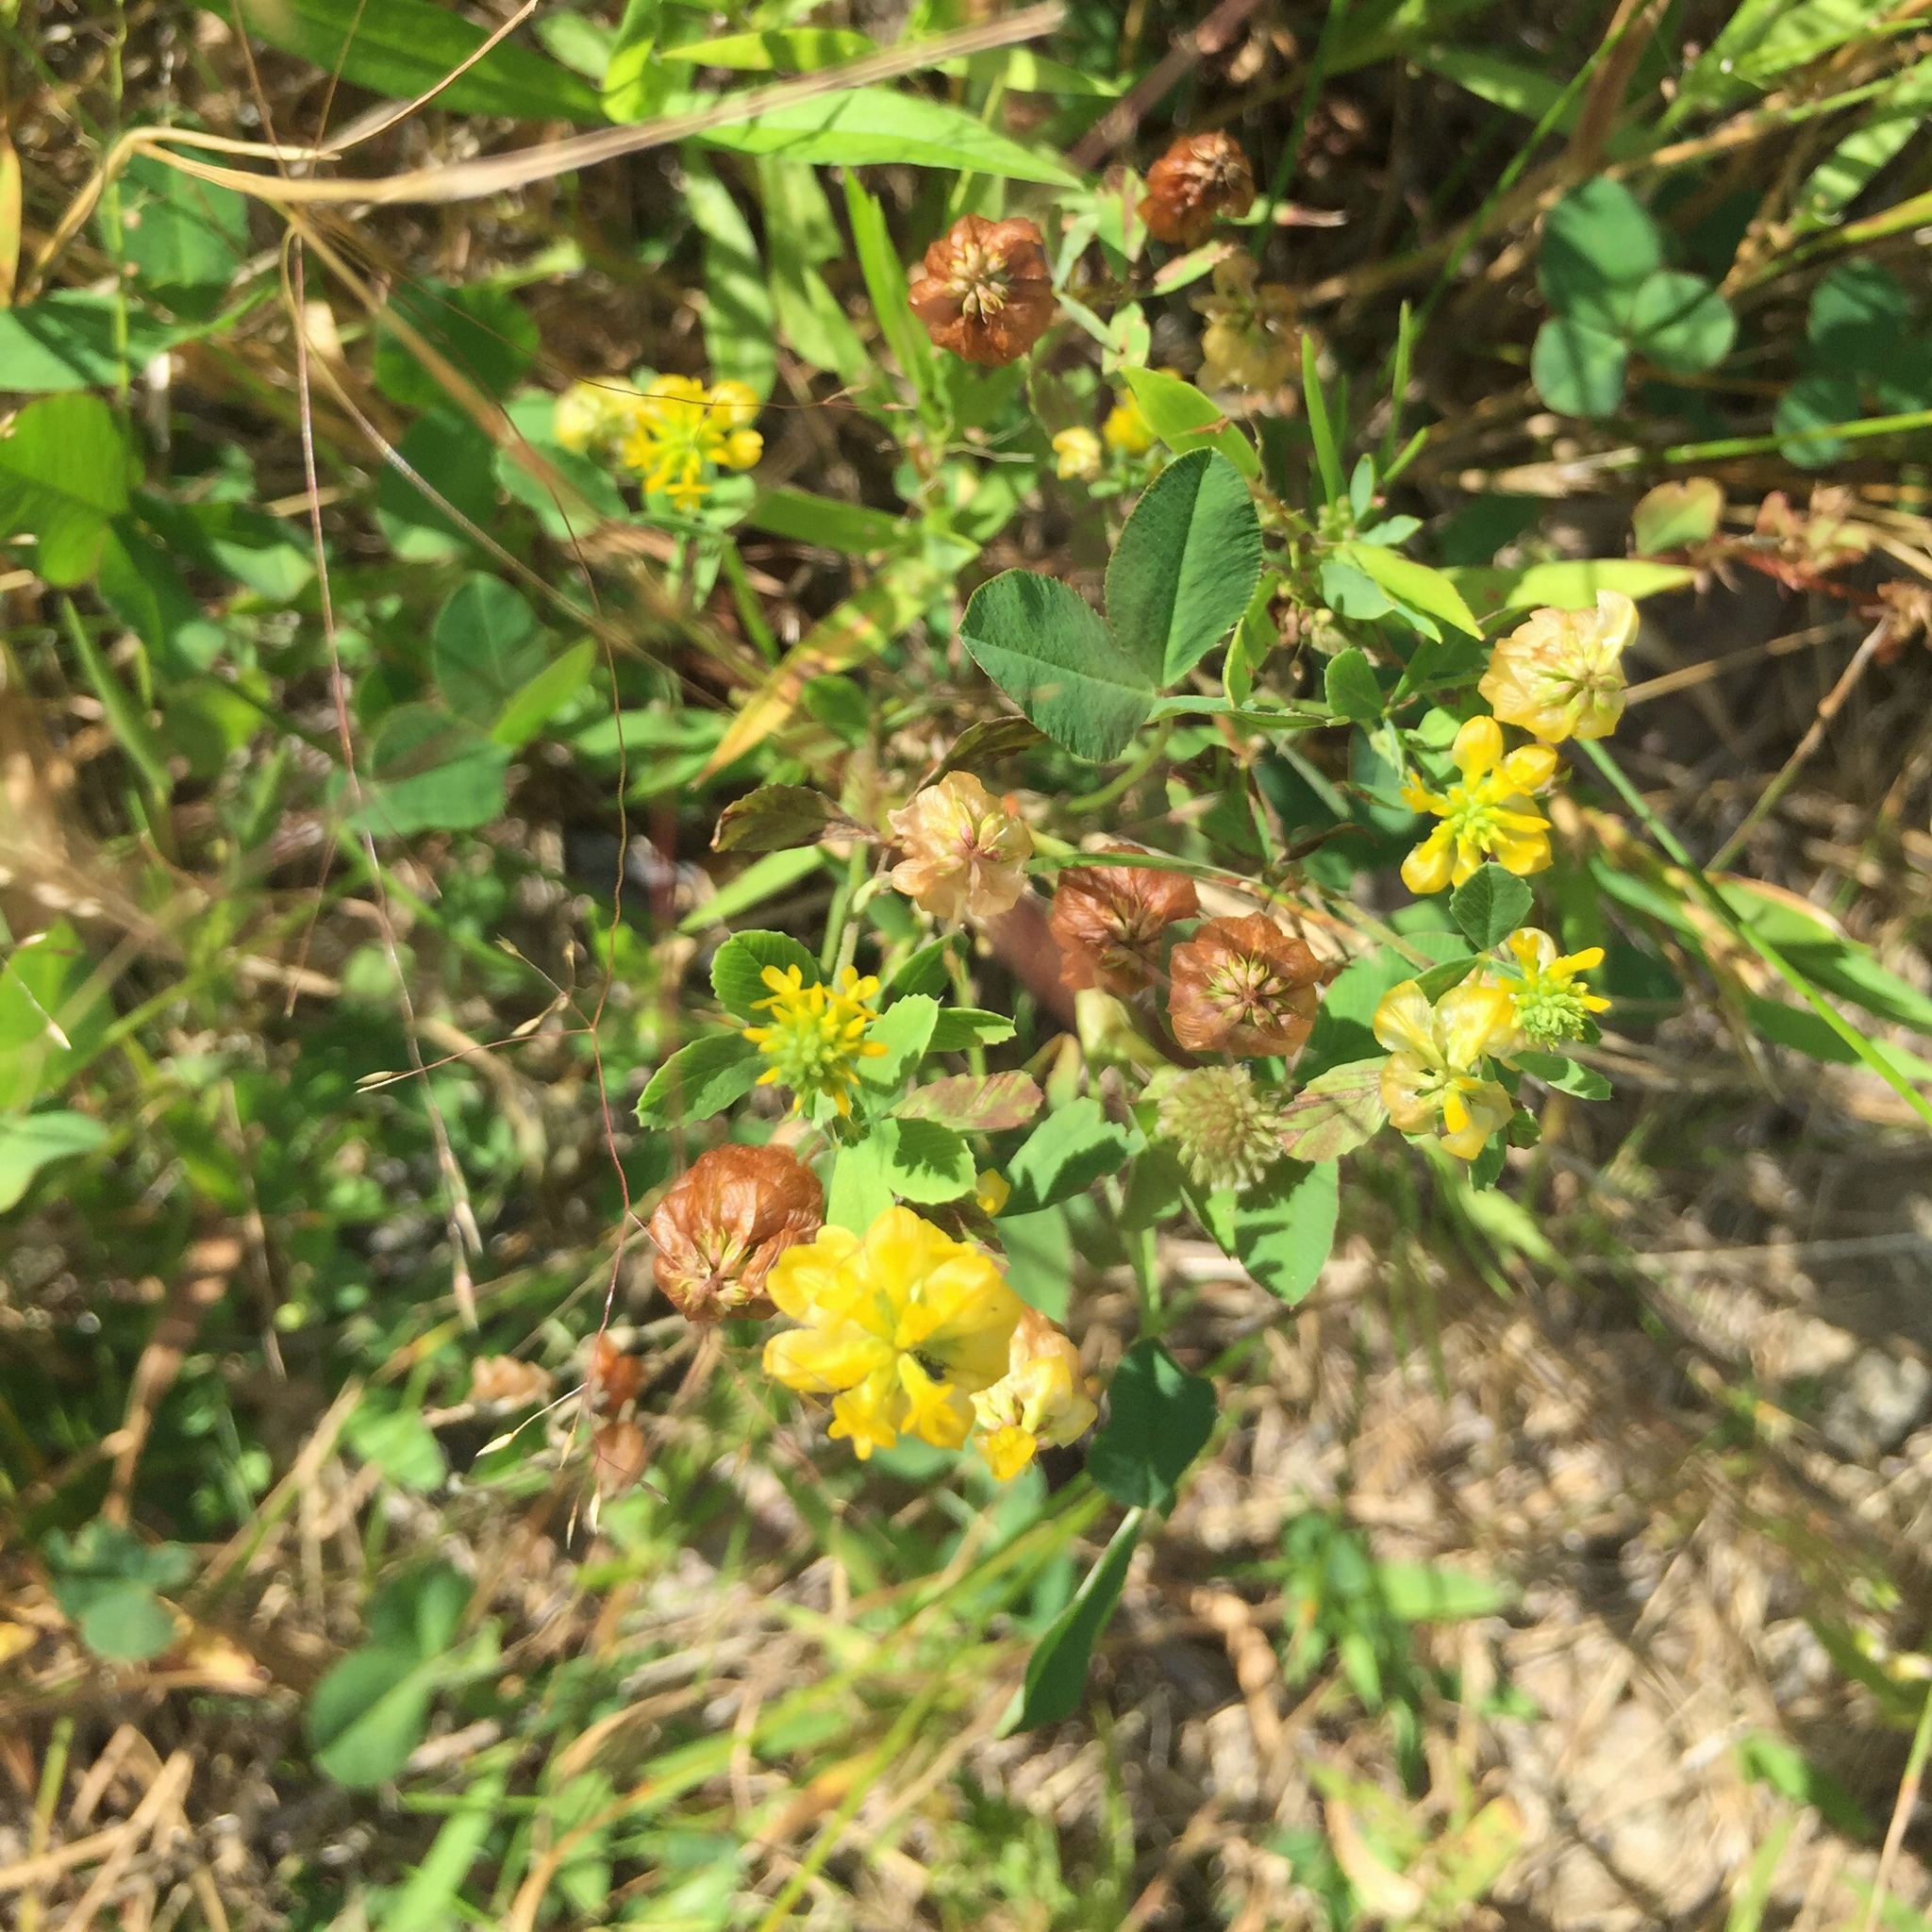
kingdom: Plantae
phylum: Tracheophyta
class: Magnoliopsida
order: Fabales
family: Fabaceae
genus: Trifolium
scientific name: Trifolium aureum
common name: Golden clover
